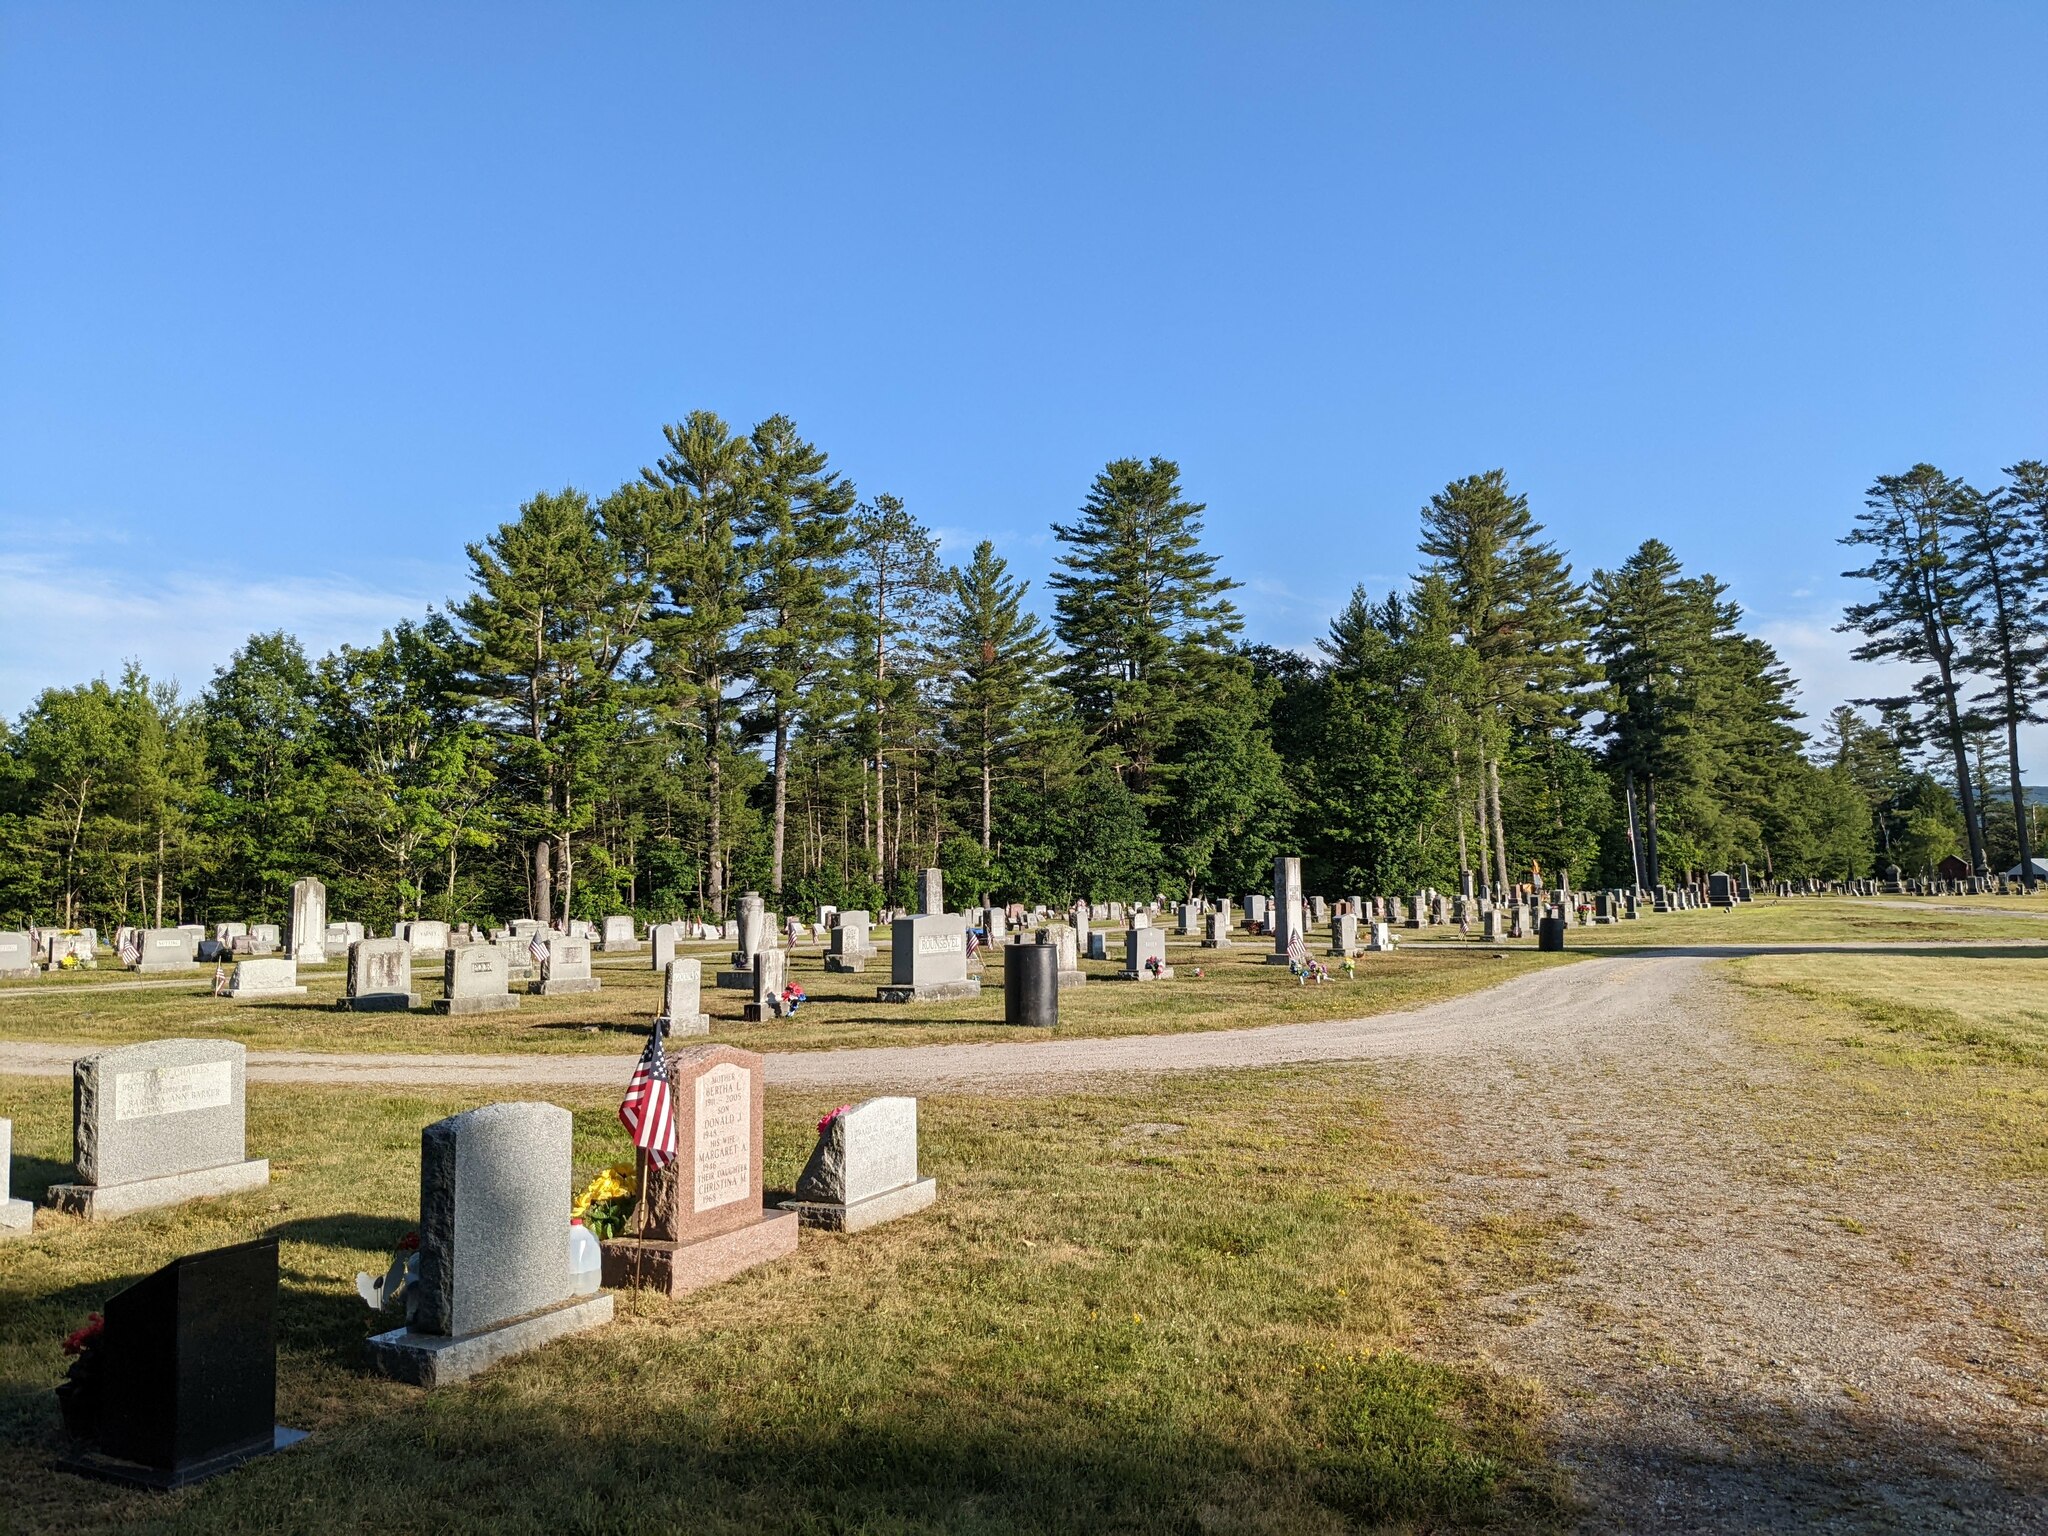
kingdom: Plantae
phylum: Tracheophyta
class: Pinopsida
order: Pinales
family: Pinaceae
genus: Pinus
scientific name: Pinus strobus
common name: Weymouth pine
